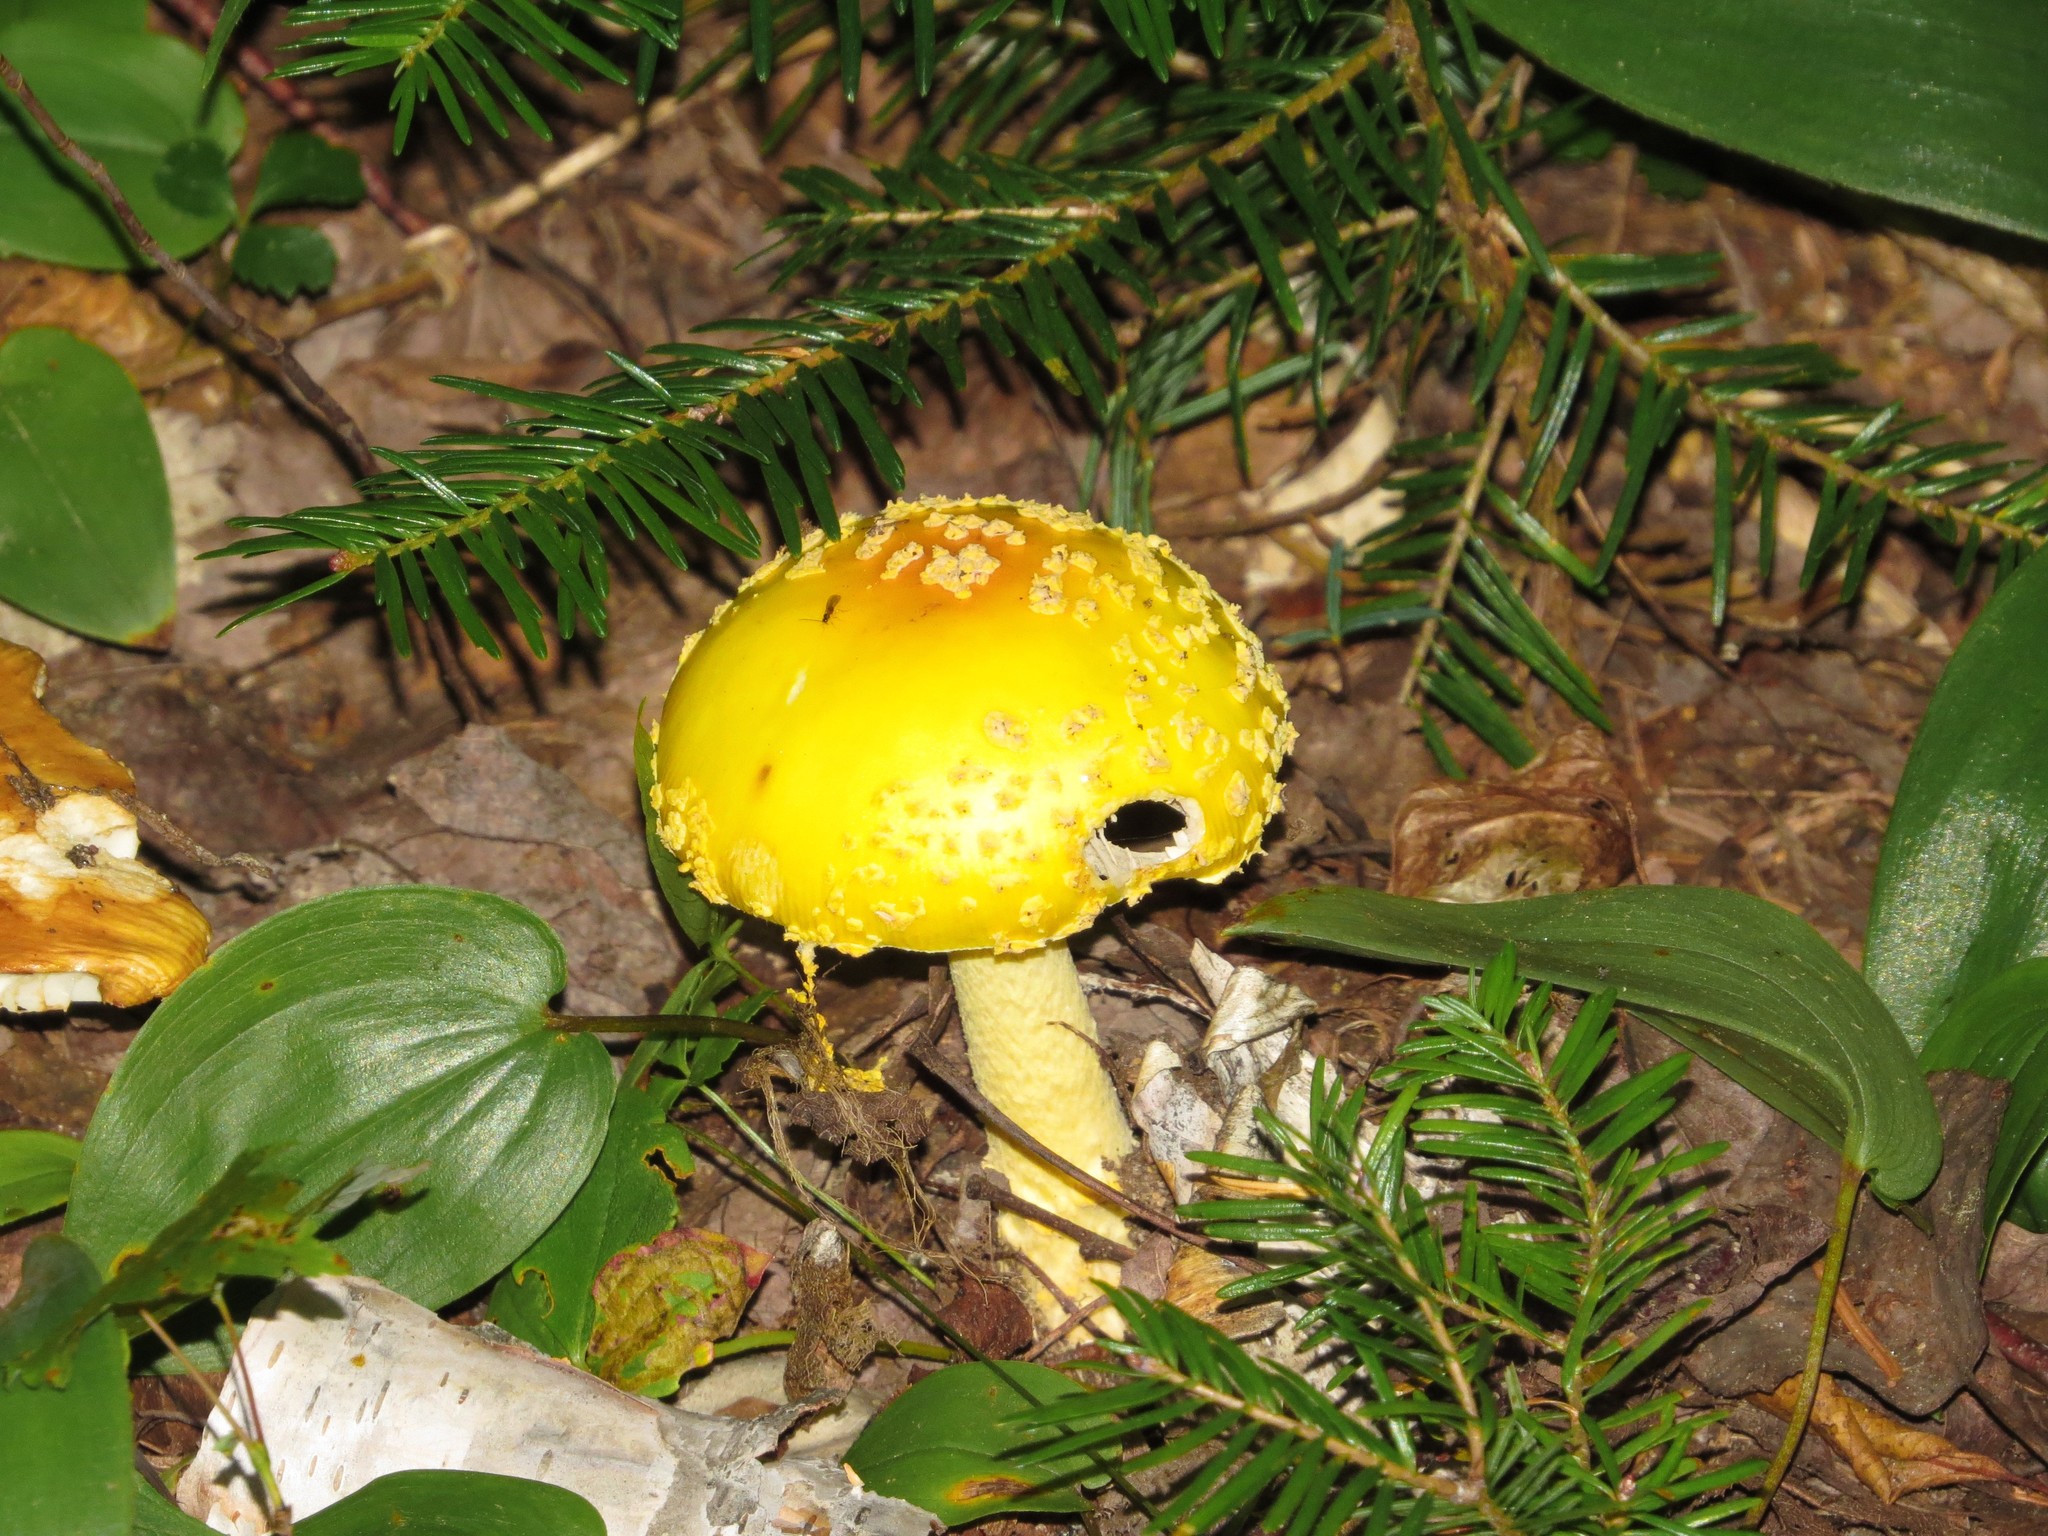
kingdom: Fungi
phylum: Basidiomycota
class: Agaricomycetes
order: Agaricales
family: Amanitaceae
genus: Amanita
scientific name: Amanita muscaria
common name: Fly agaric
